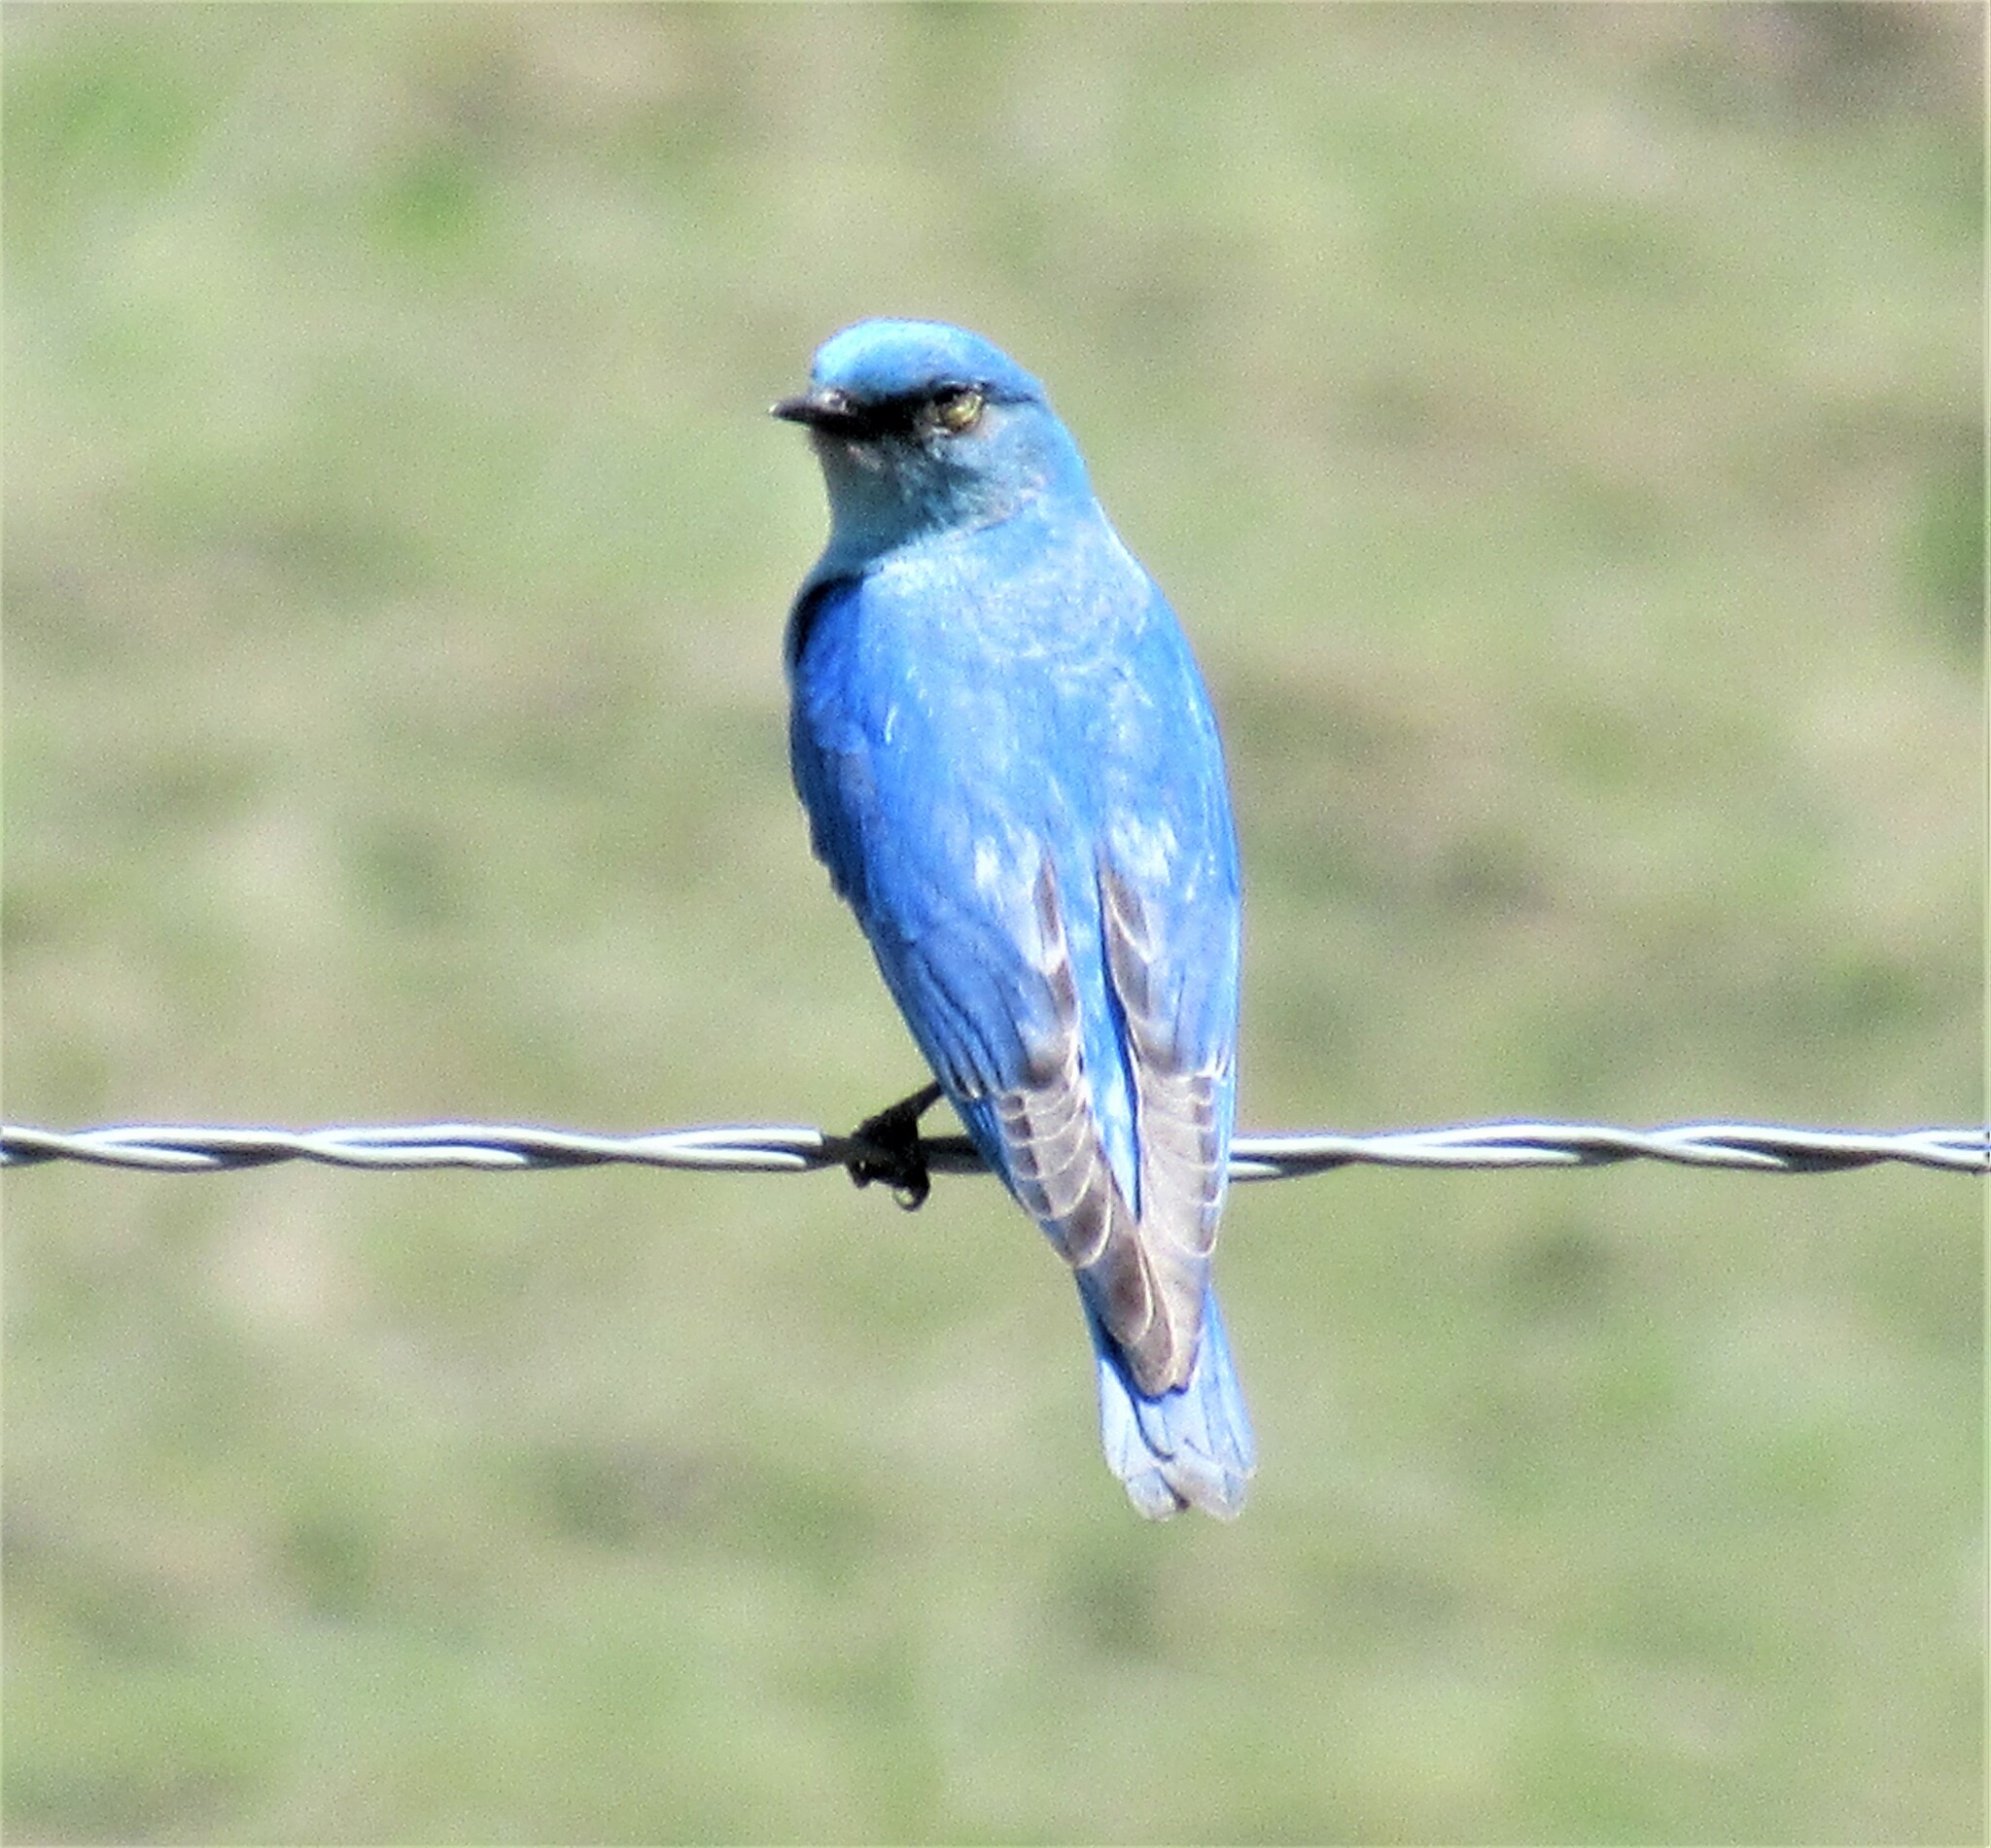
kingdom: Animalia
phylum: Chordata
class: Aves
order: Passeriformes
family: Turdidae
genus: Sialia
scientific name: Sialia currucoides
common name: Mountain bluebird
